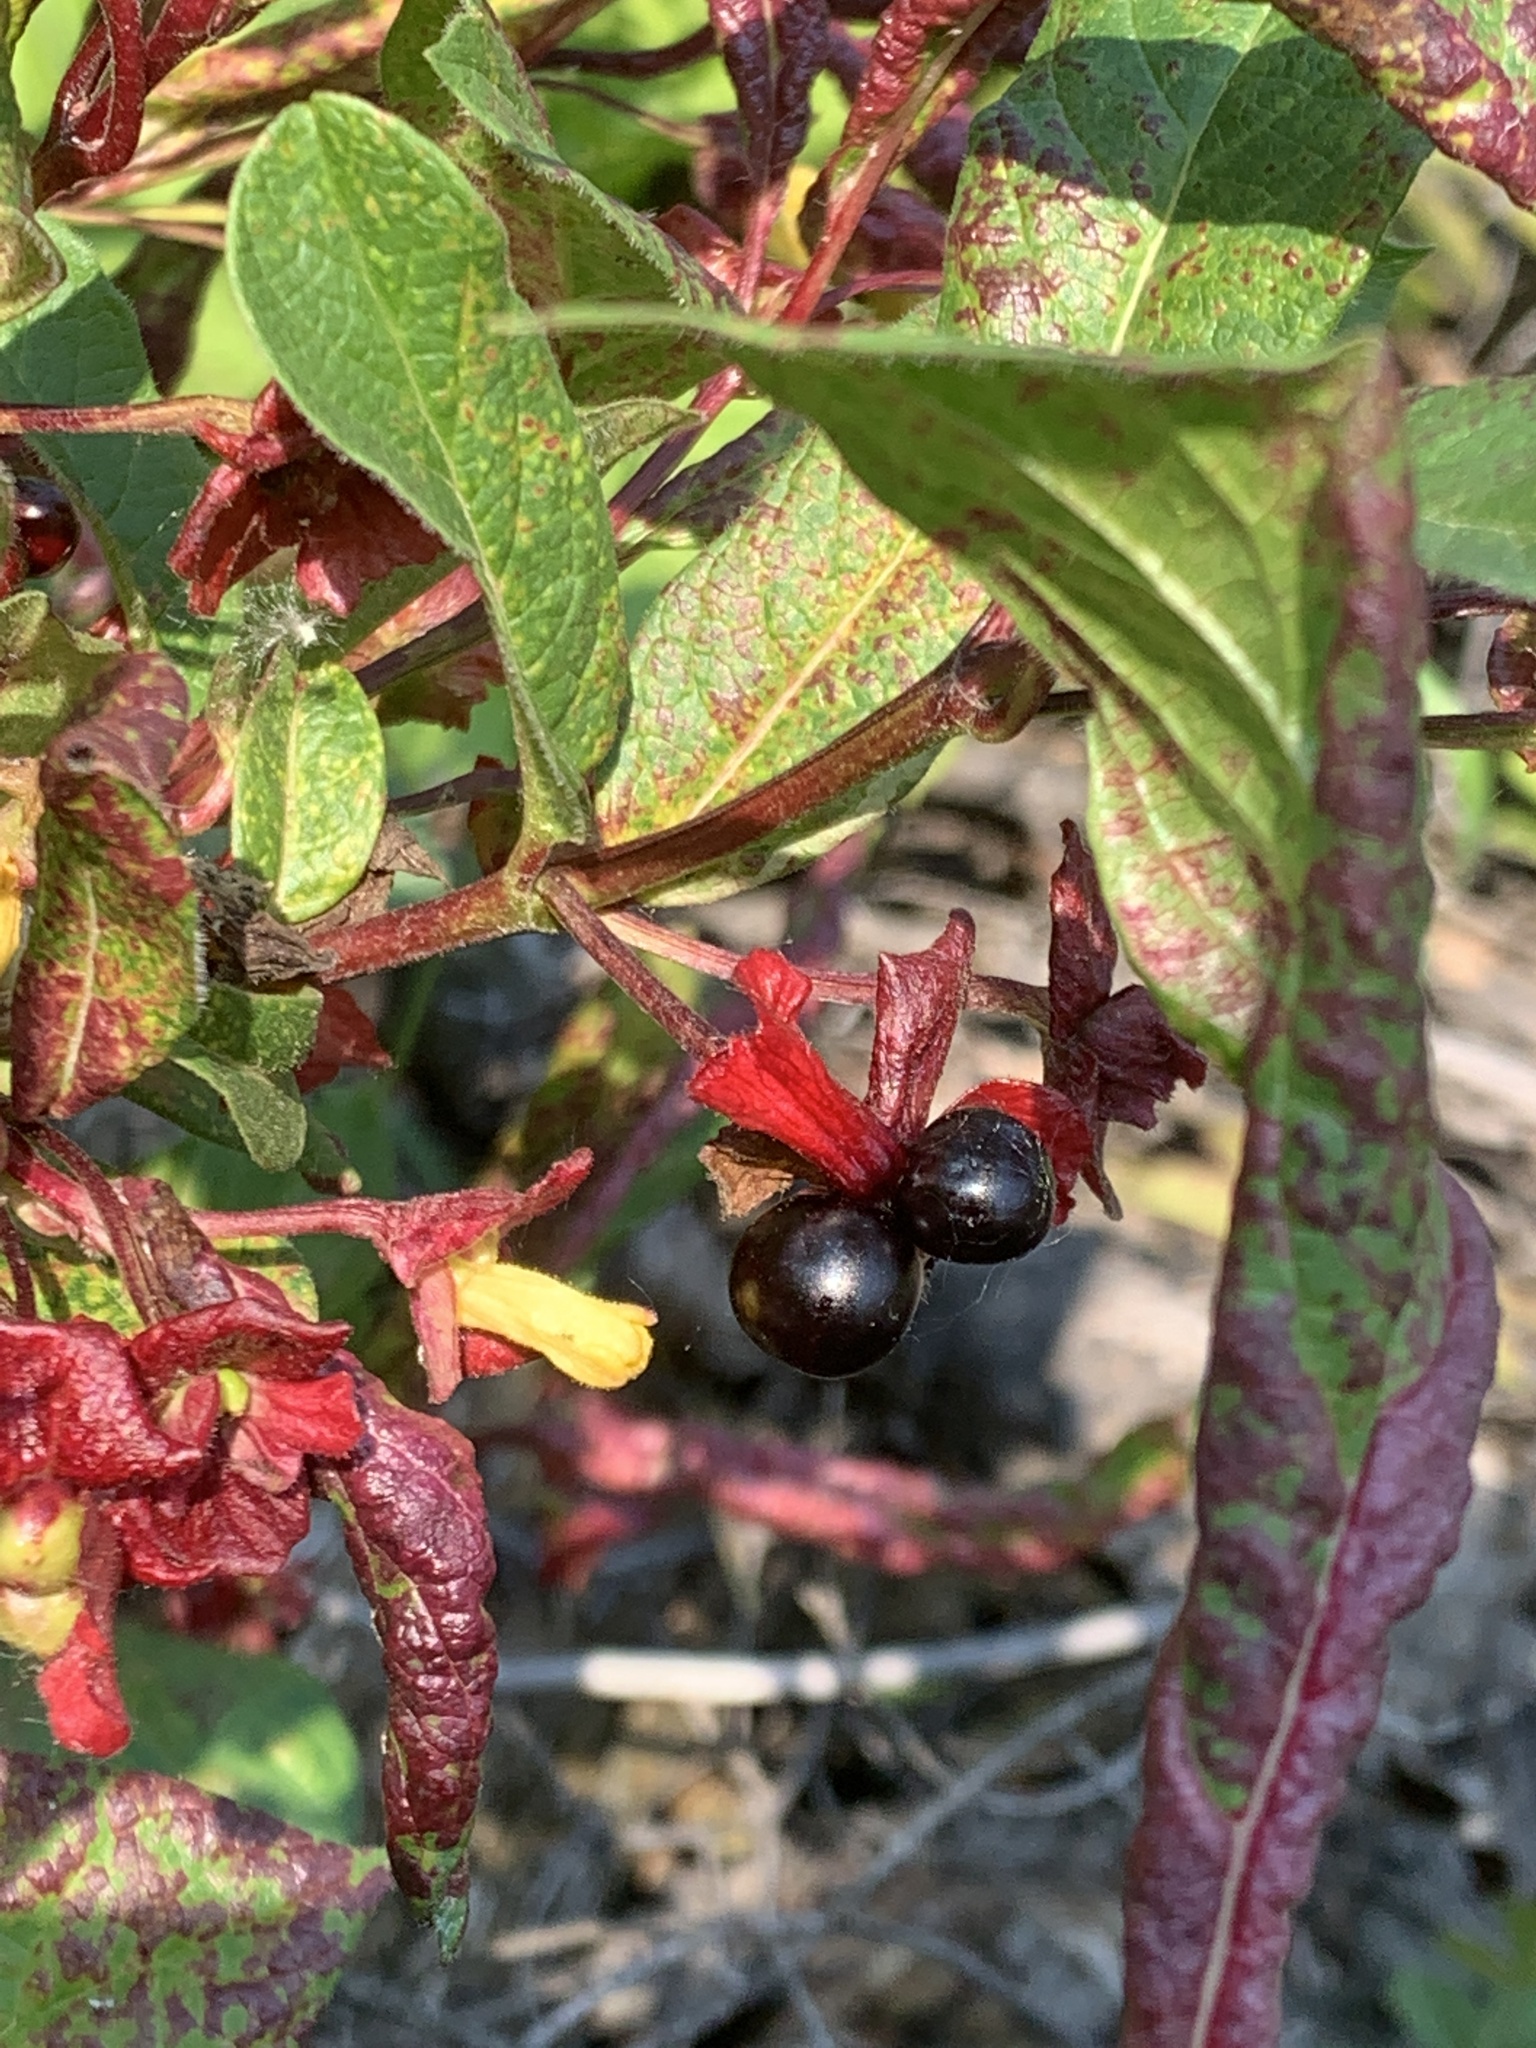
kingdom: Plantae
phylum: Tracheophyta
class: Magnoliopsida
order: Dipsacales
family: Caprifoliaceae
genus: Lonicera
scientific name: Lonicera involucrata
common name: Californian honeysuckle
